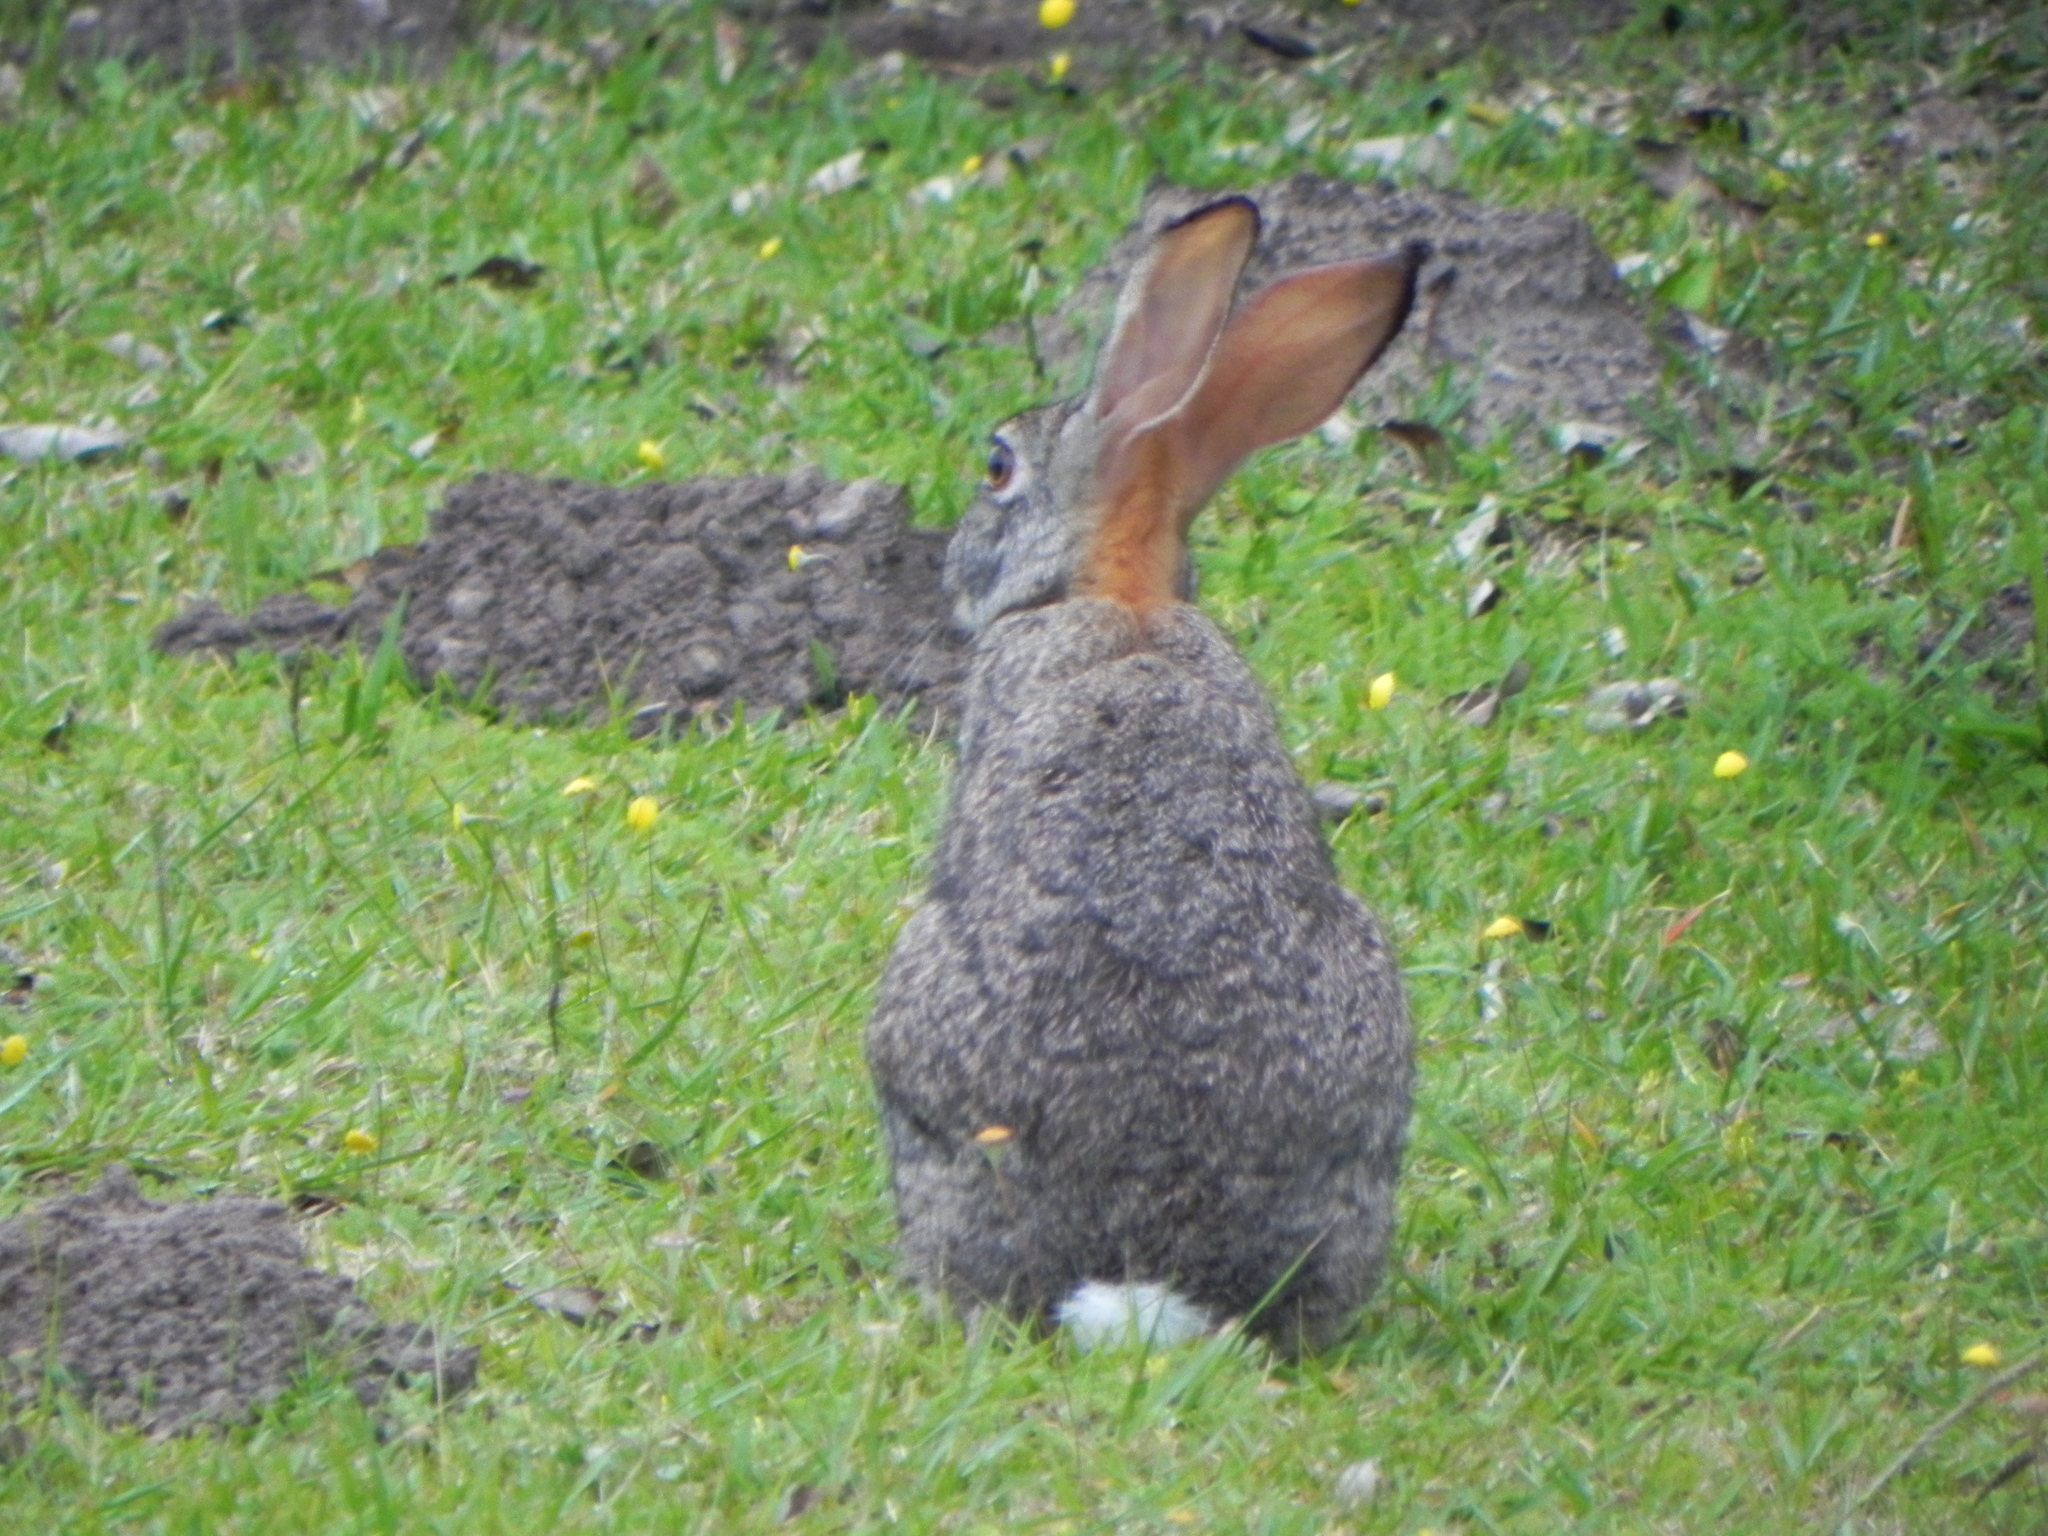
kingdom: Animalia
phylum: Chordata
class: Mammalia
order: Lagomorpha
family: Leporidae
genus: Lepus
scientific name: Lepus saxatilis
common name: Scrub hare
